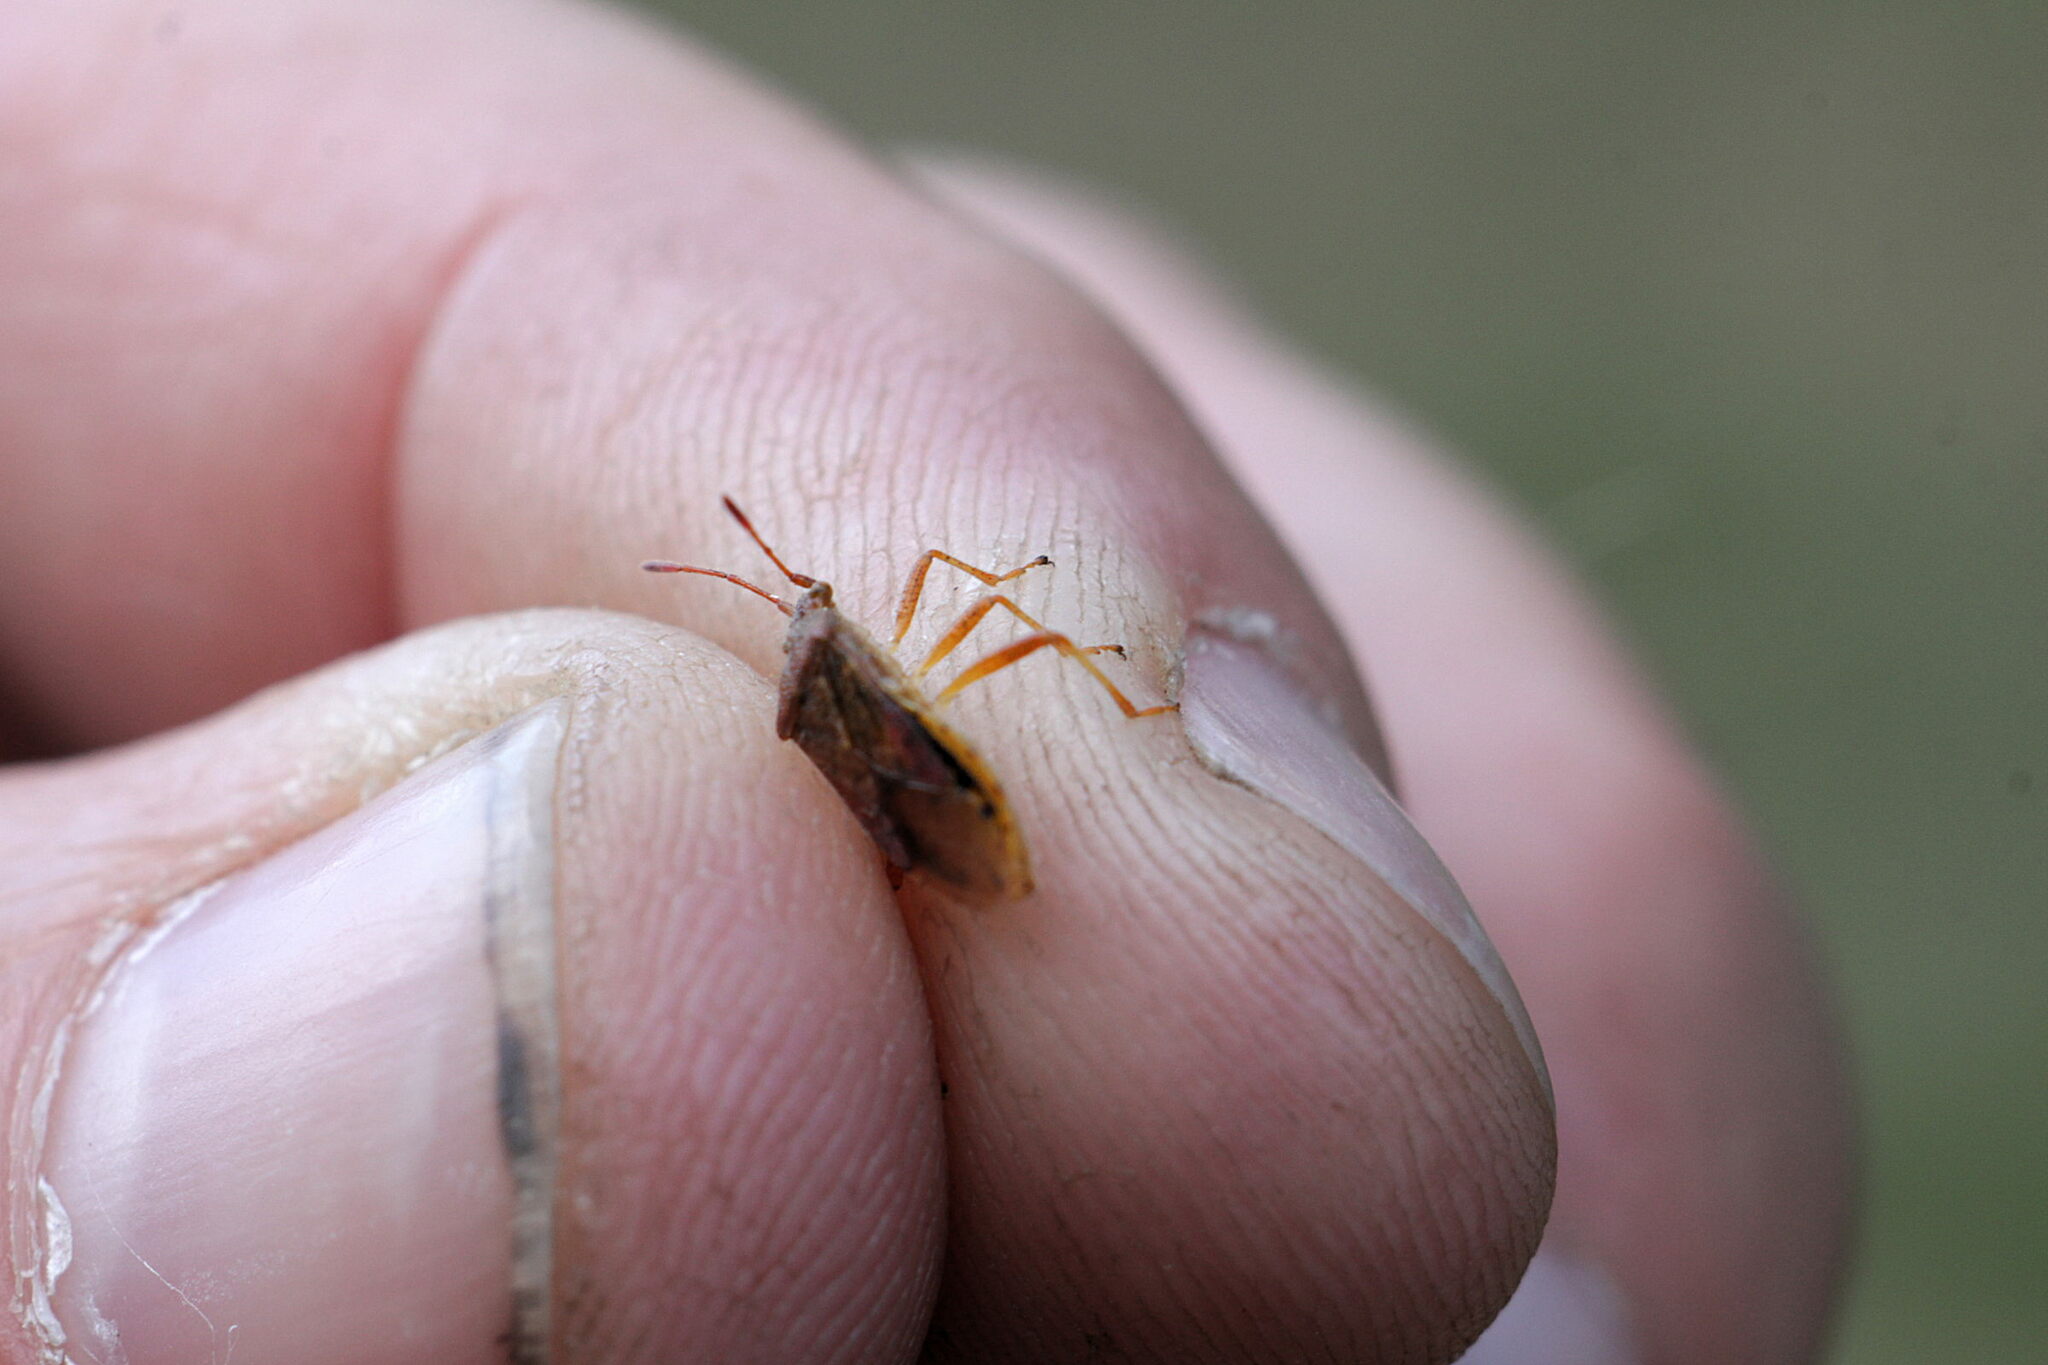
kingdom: Animalia
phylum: Arthropoda
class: Insecta
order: Hemiptera
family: Rhopalidae
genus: Rhopalus
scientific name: Rhopalus maculatus
